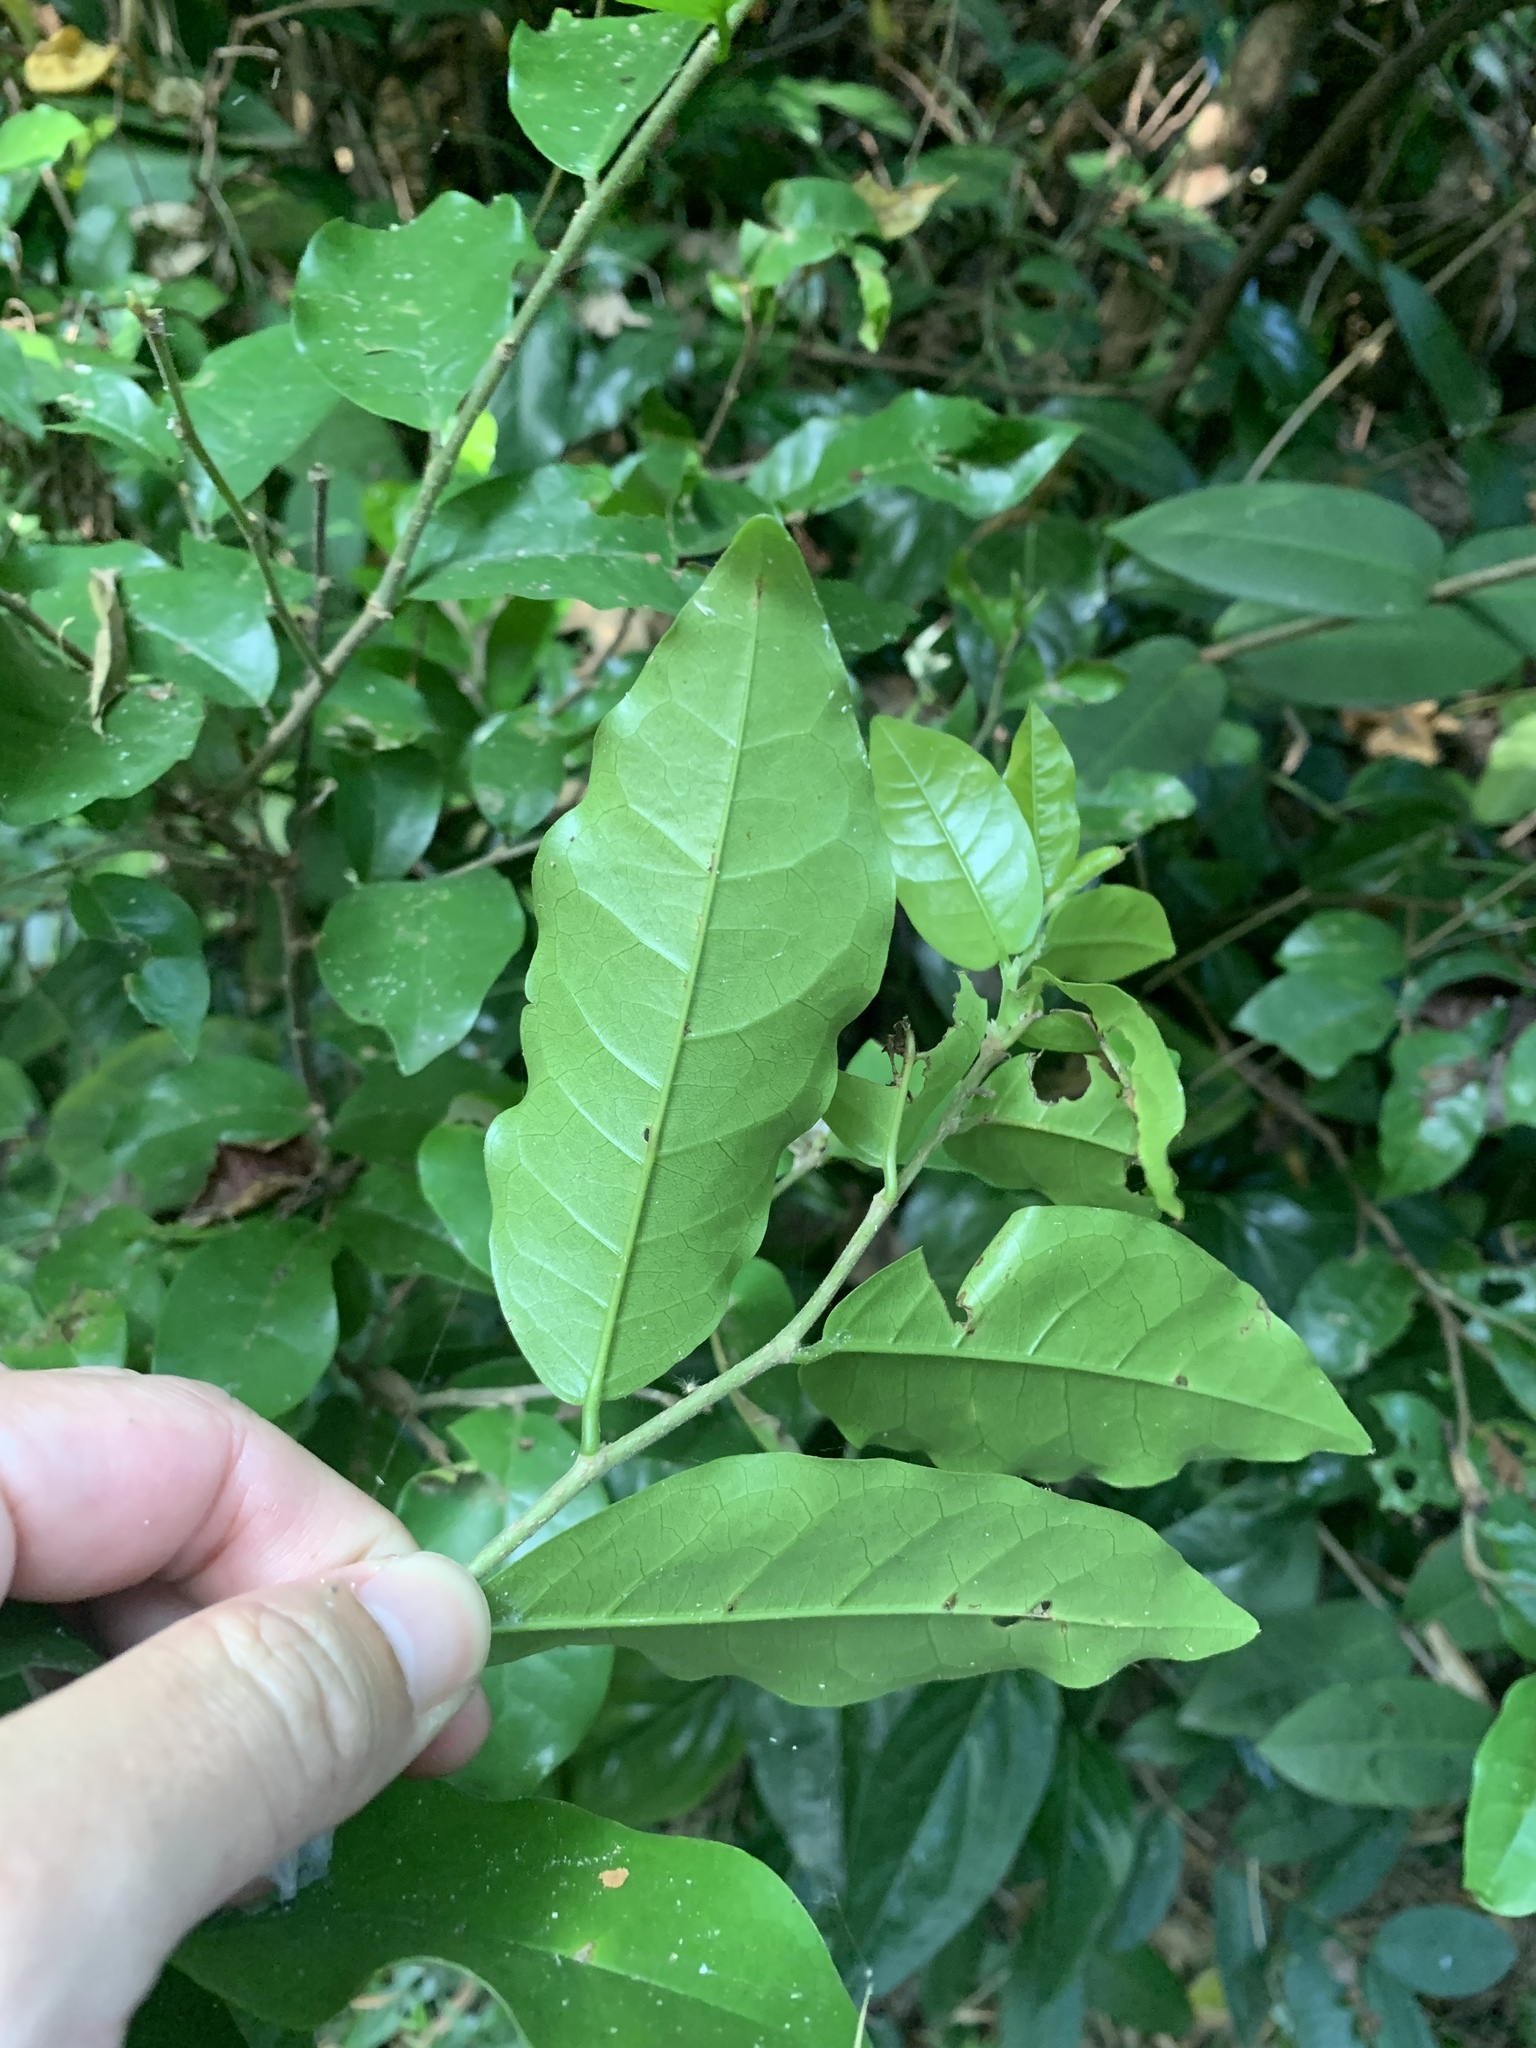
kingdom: Plantae
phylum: Tracheophyta
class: Magnoliopsida
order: Malpighiales
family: Phyllanthaceae
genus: Antidesma
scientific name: Antidesma montanum
